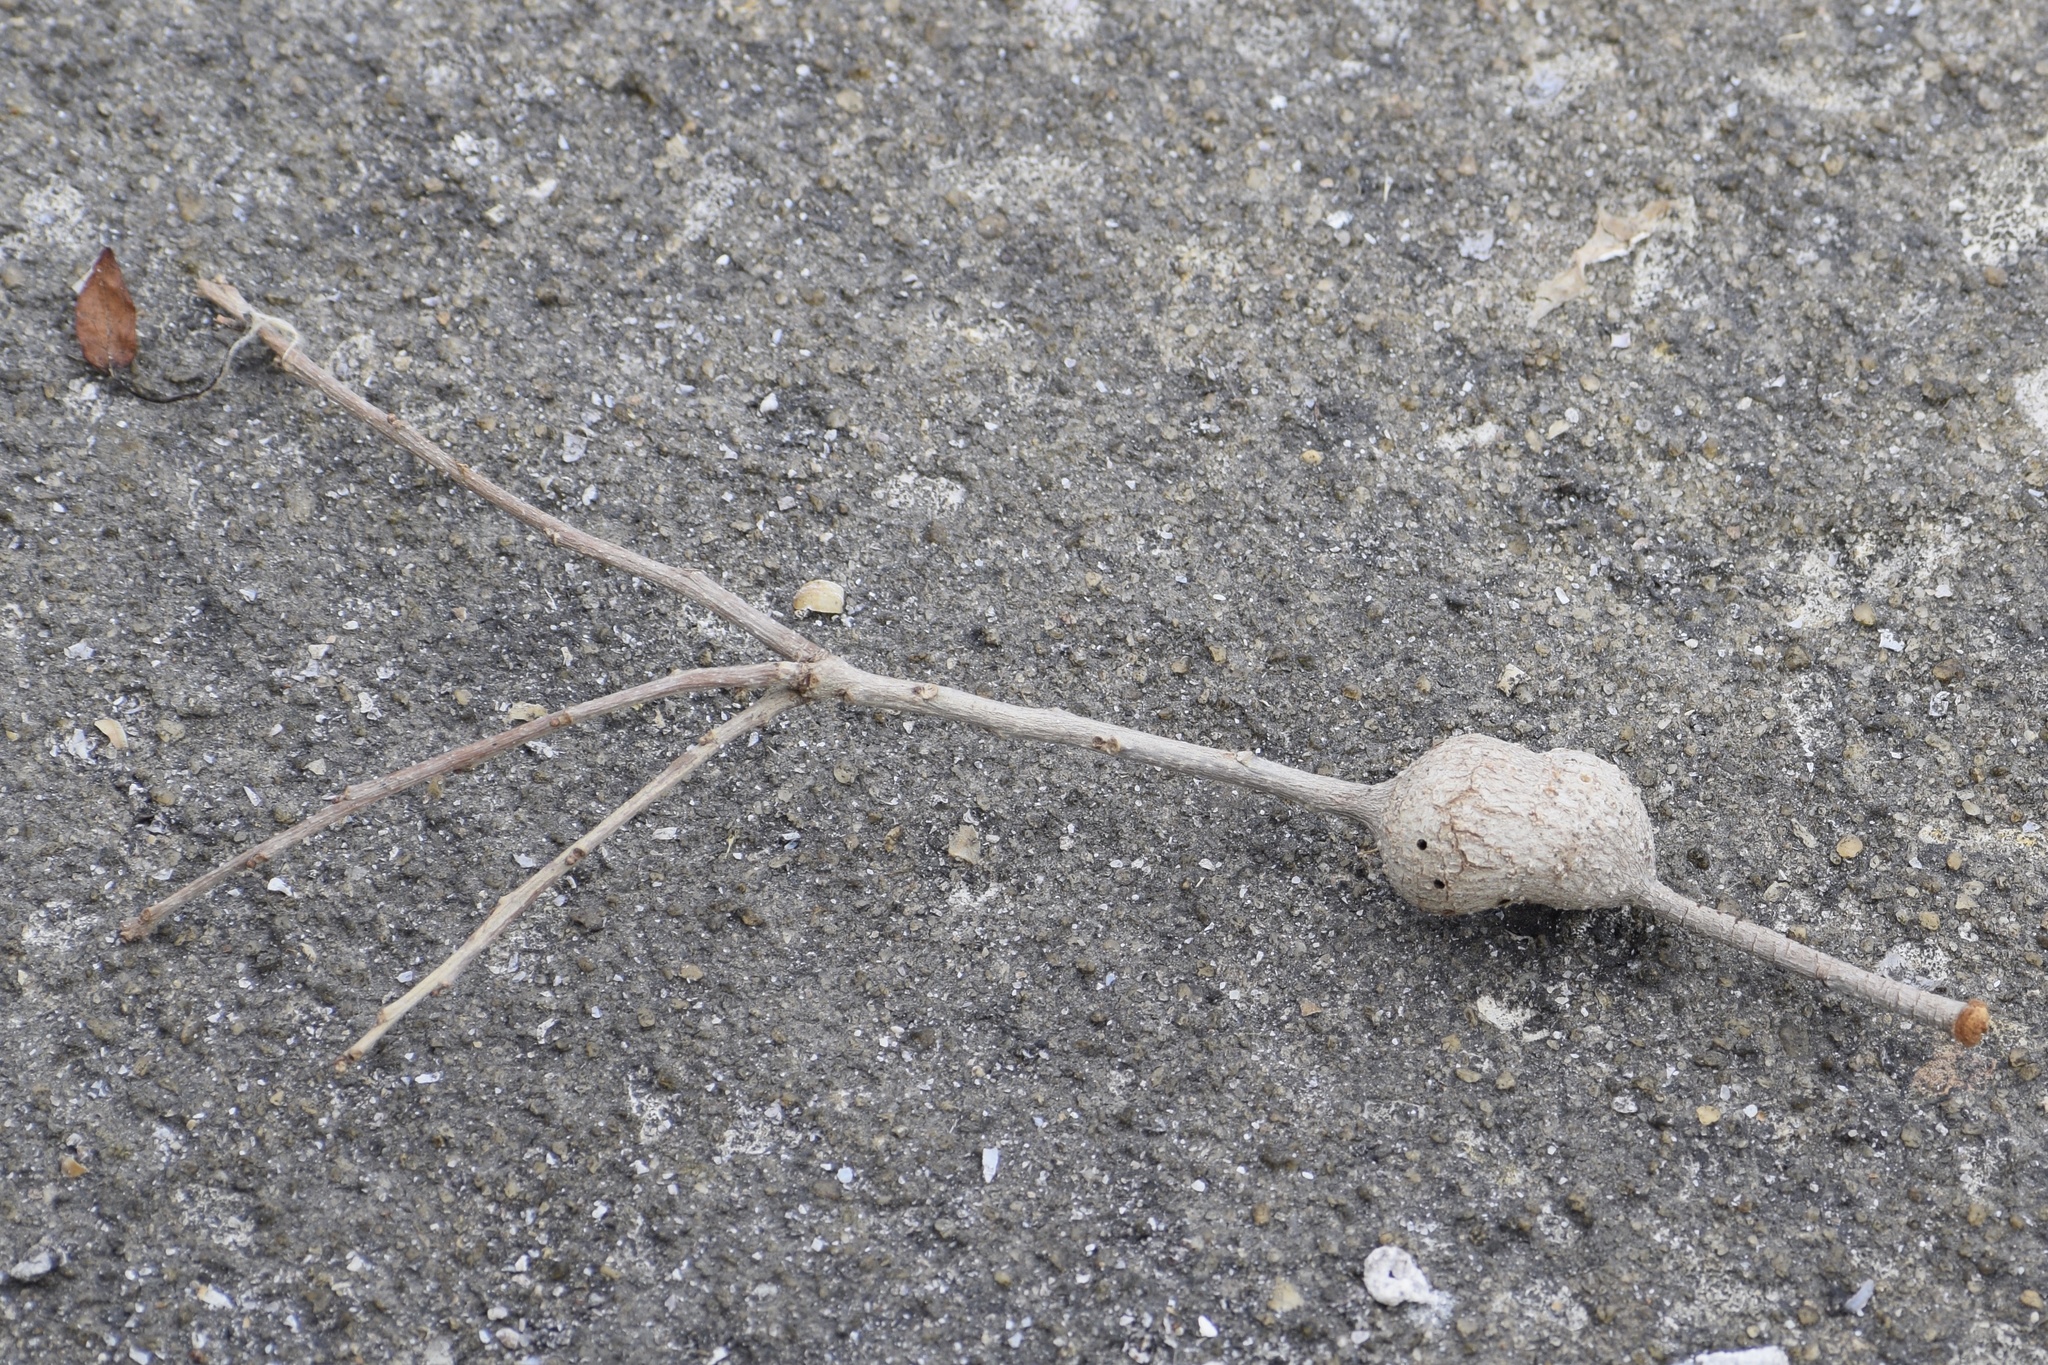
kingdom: Animalia
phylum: Arthropoda
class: Insecta
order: Hymenoptera
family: Cynipidae
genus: Callirhytis
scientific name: Callirhytis
